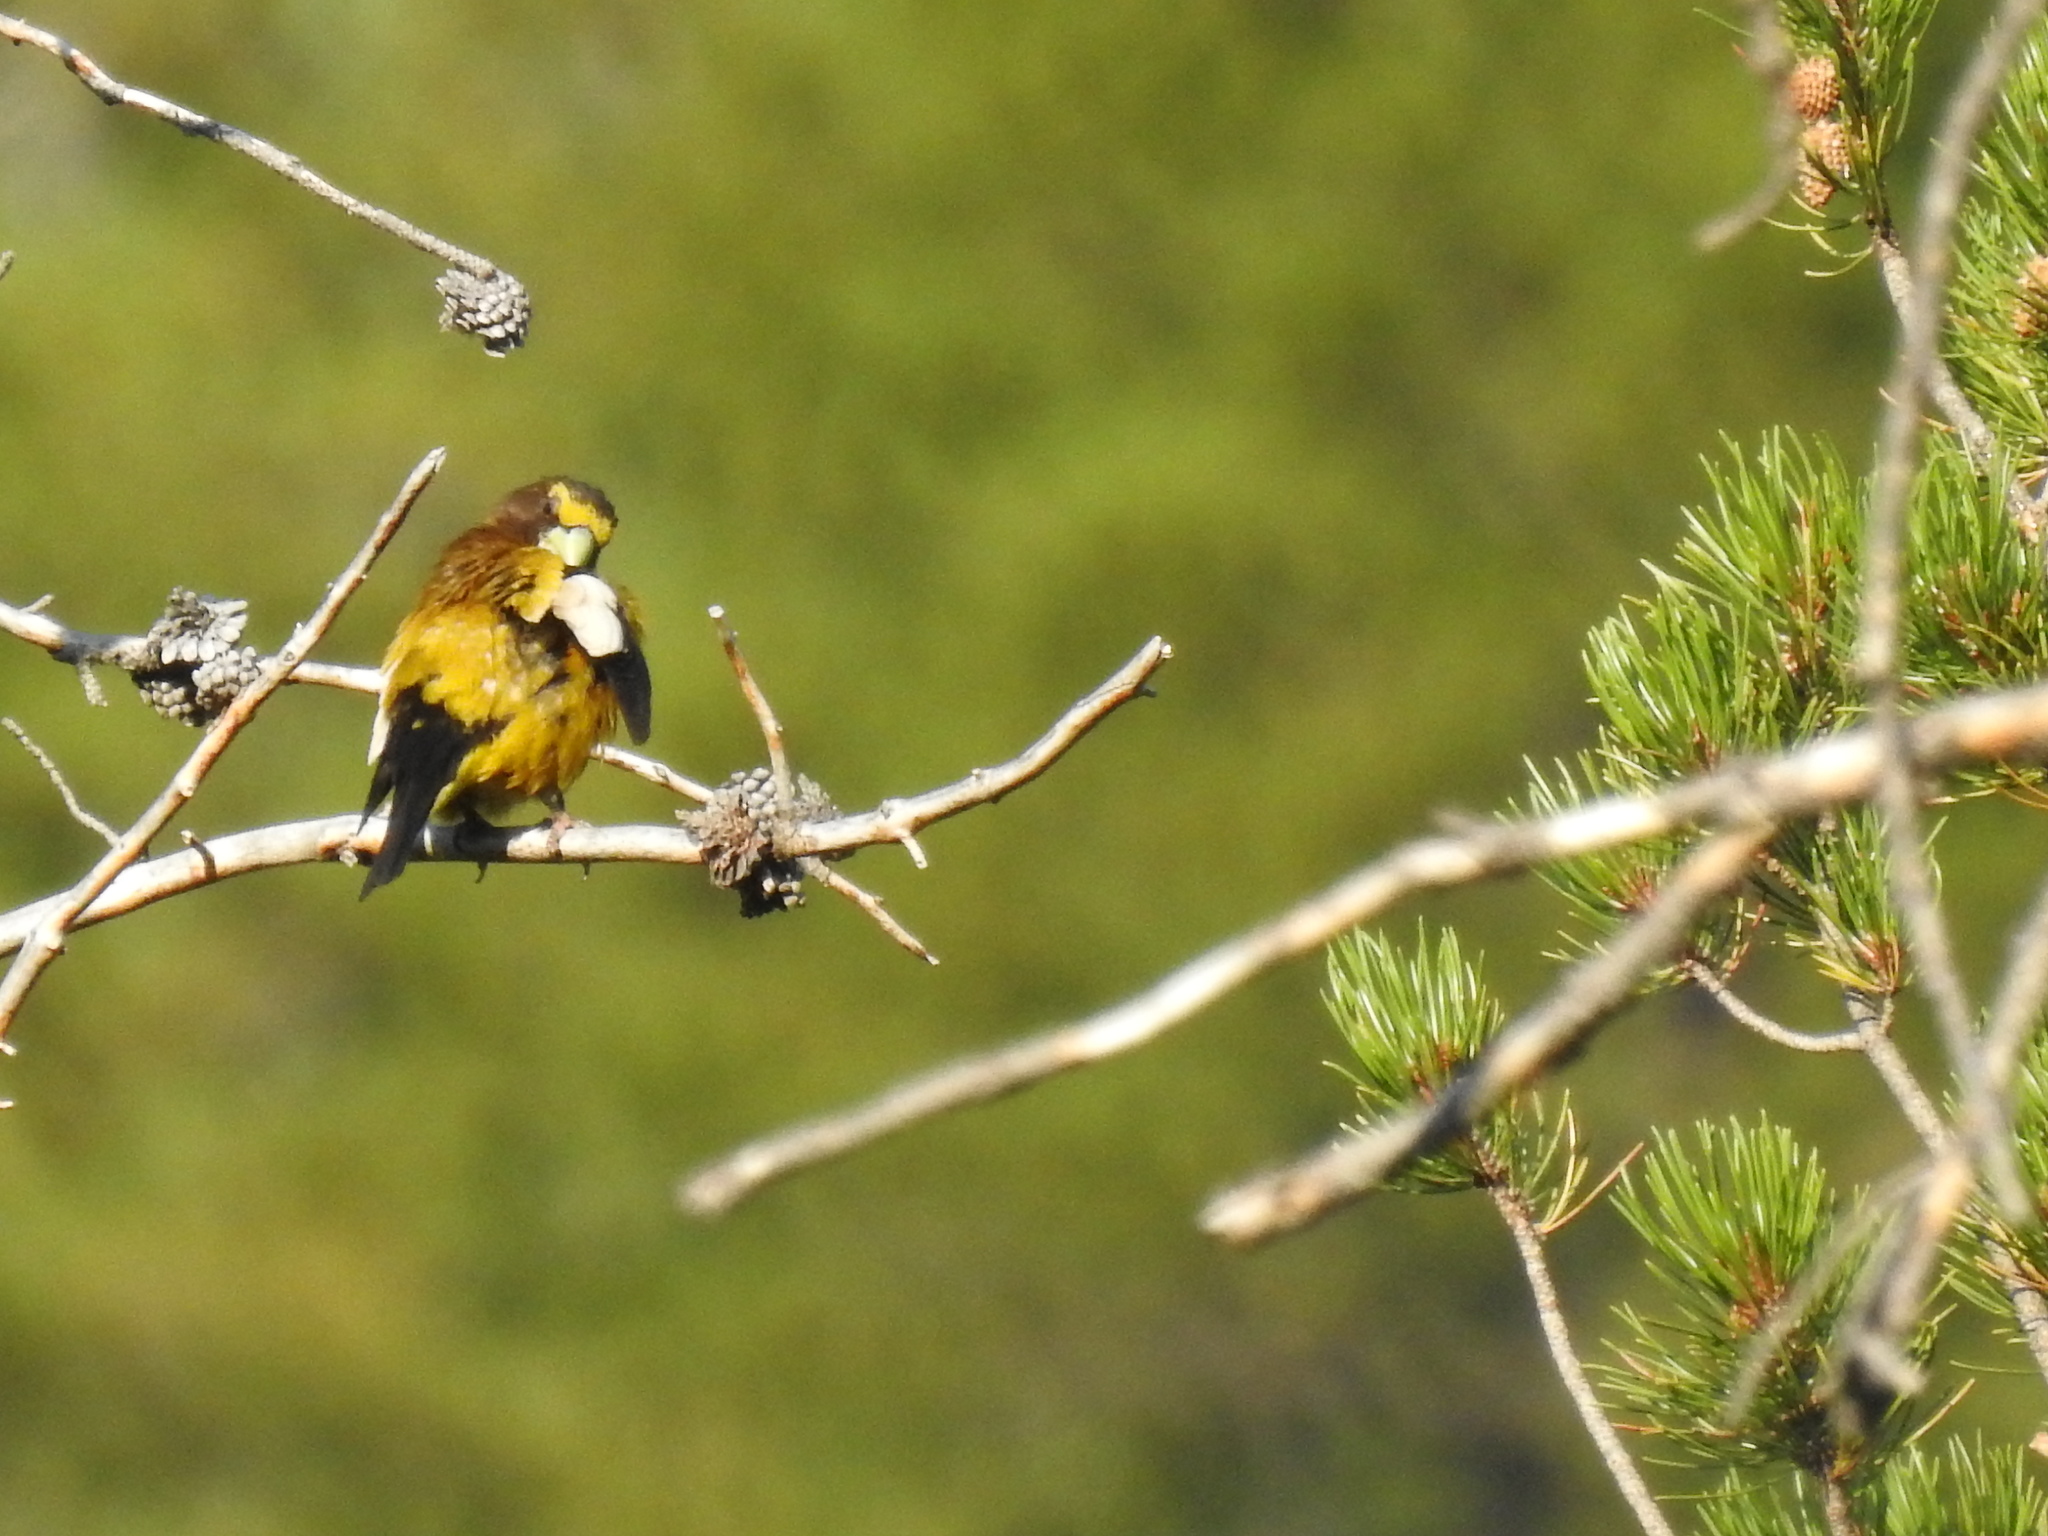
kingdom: Animalia
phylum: Chordata
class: Aves
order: Passeriformes
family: Fringillidae
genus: Hesperiphona
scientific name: Hesperiphona vespertina
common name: Evening grosbeak
